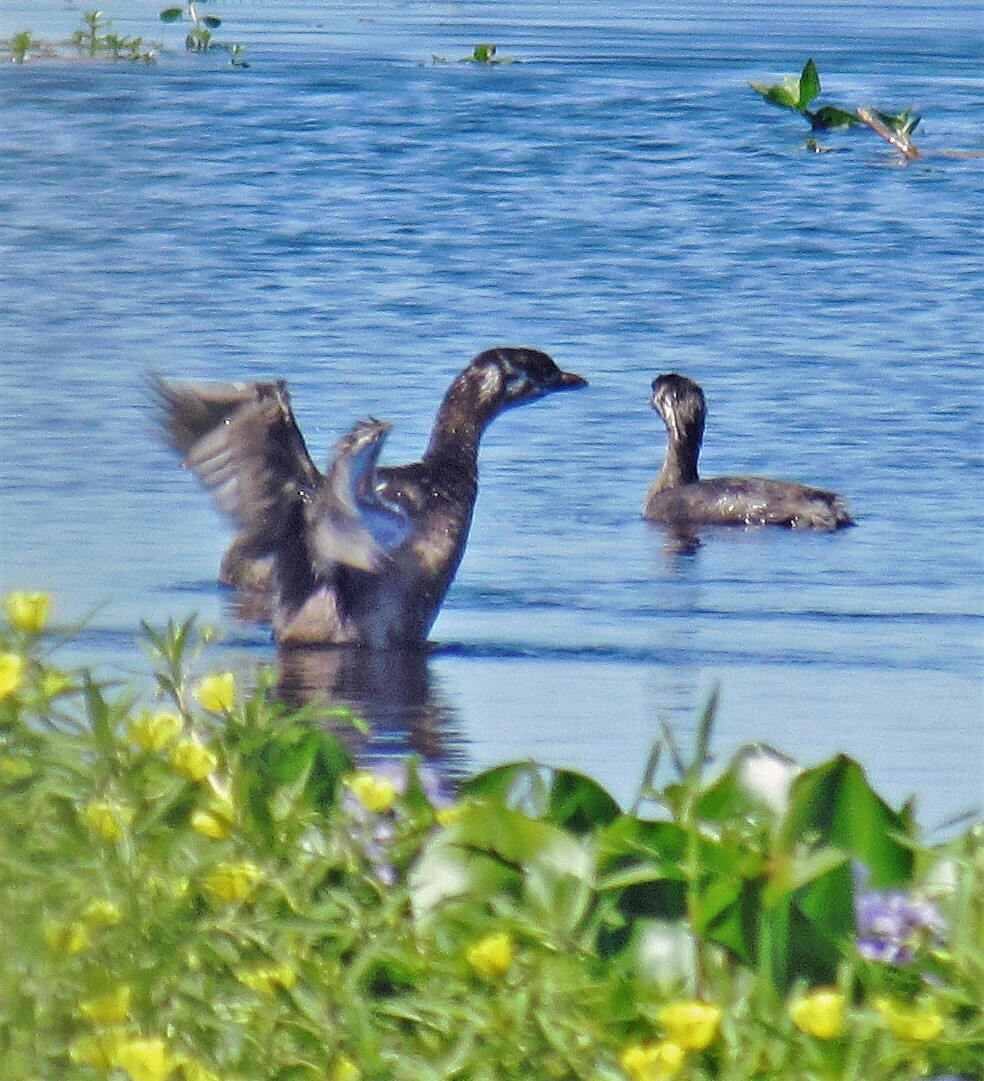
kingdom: Animalia
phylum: Chordata
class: Aves
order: Podicipediformes
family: Podicipedidae
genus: Podilymbus
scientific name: Podilymbus podiceps
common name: Pied-billed grebe
